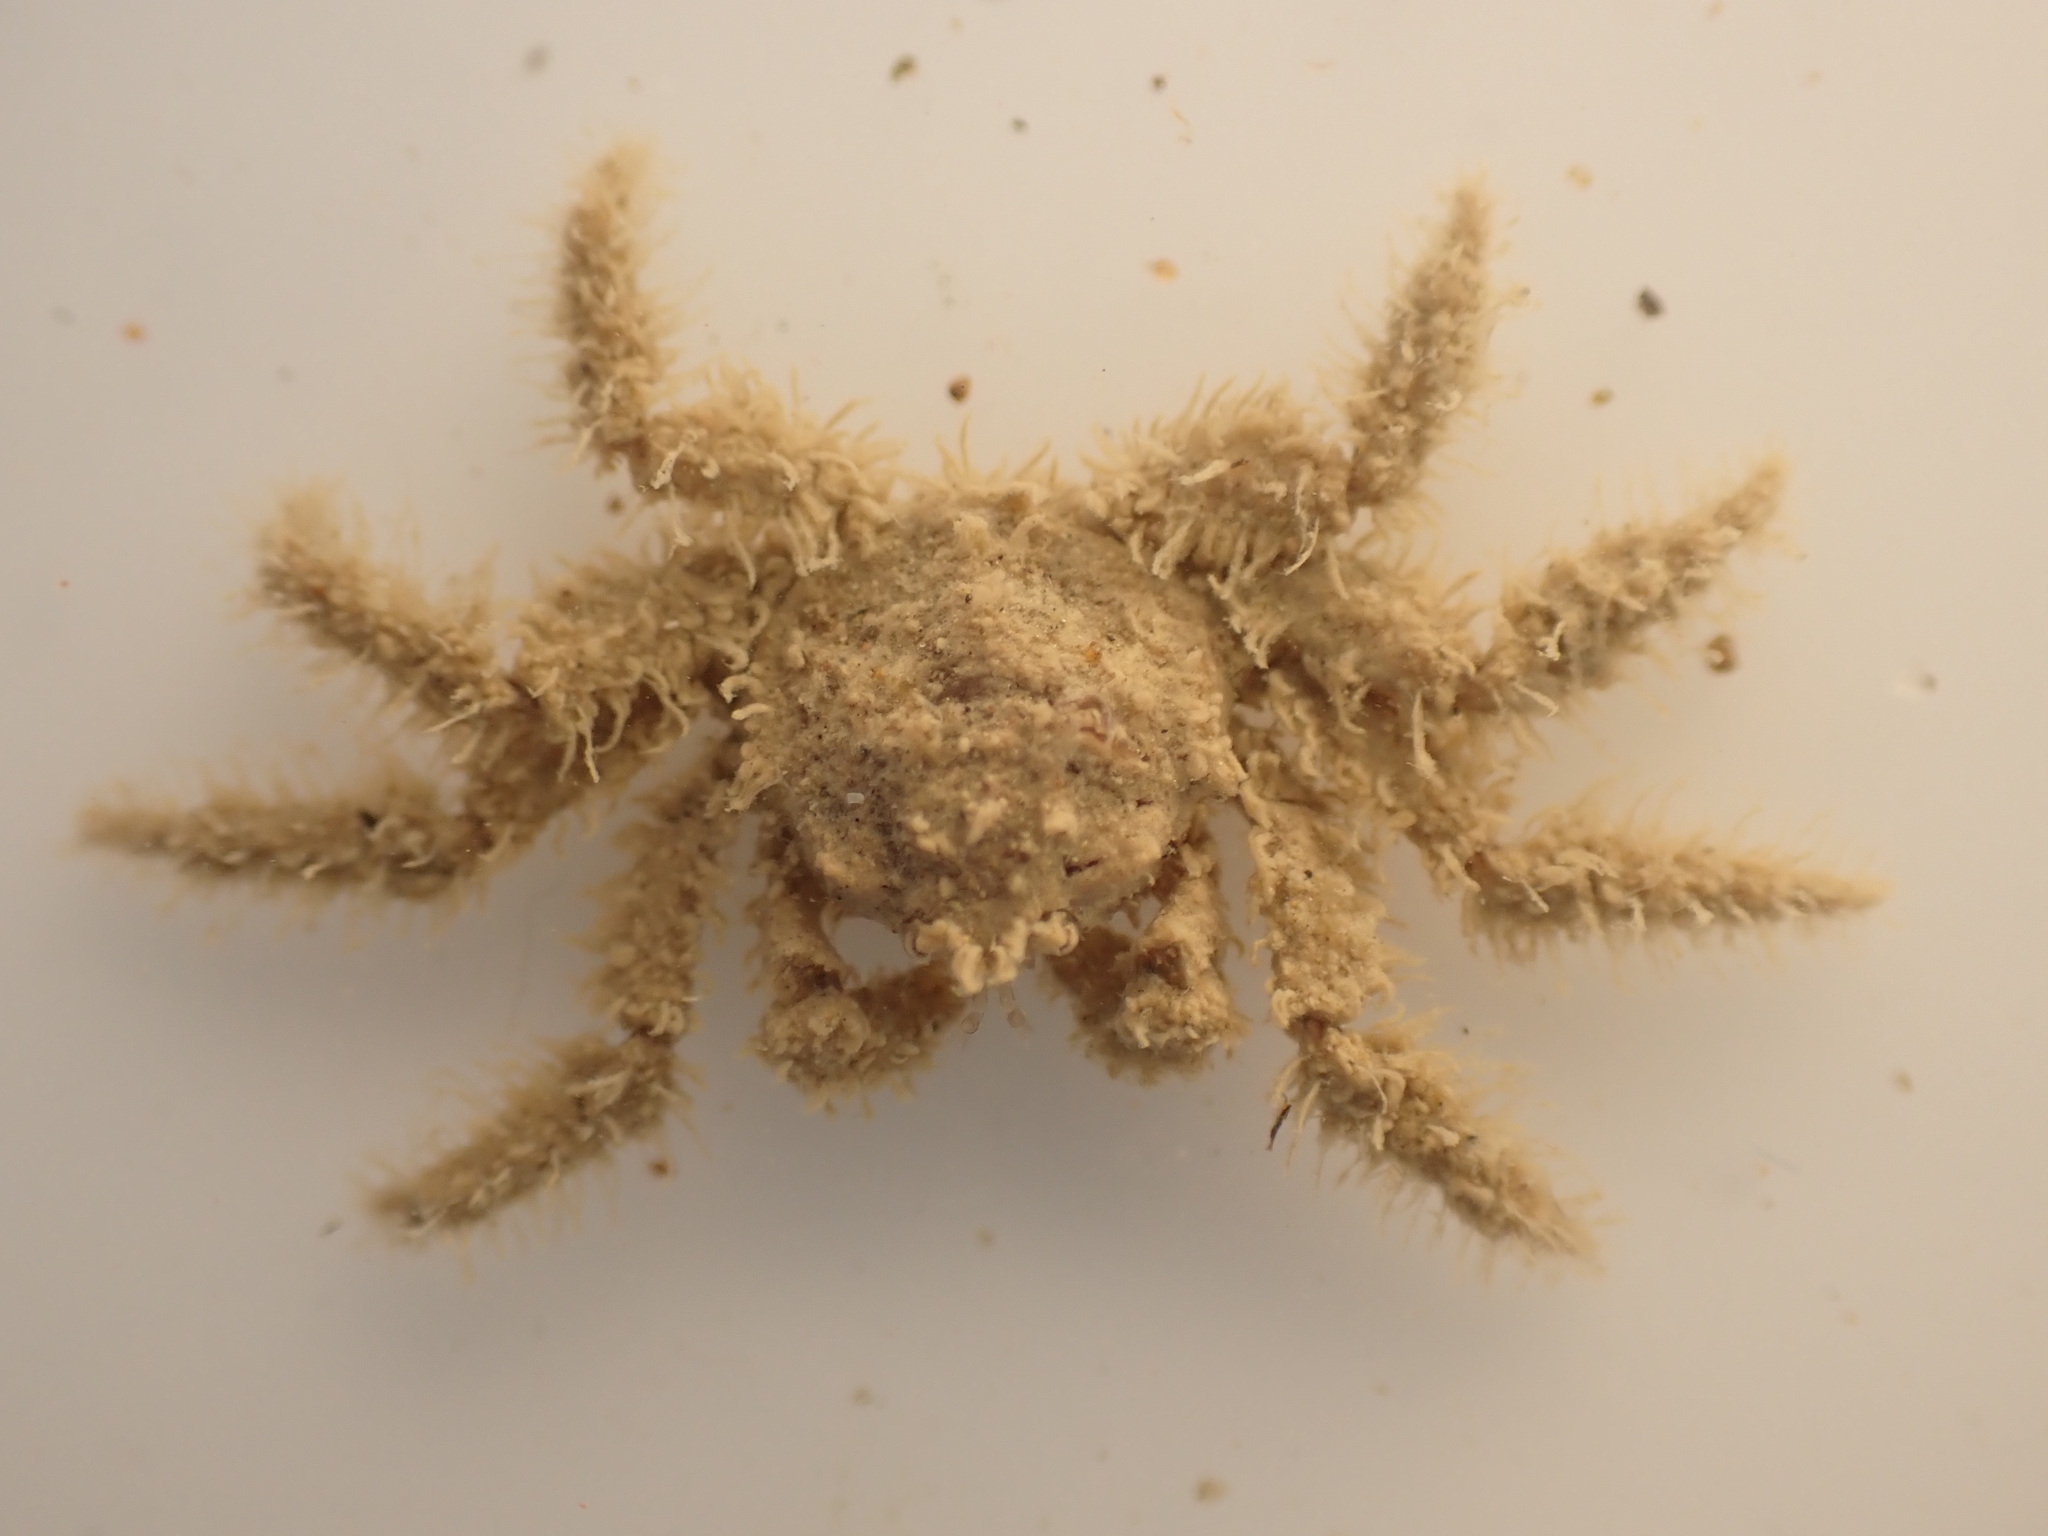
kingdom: Animalia
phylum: Arthropoda
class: Malacostraca
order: Decapoda
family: Hymenosomatidae
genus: Neohymenicus
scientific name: Neohymenicus pubescens
